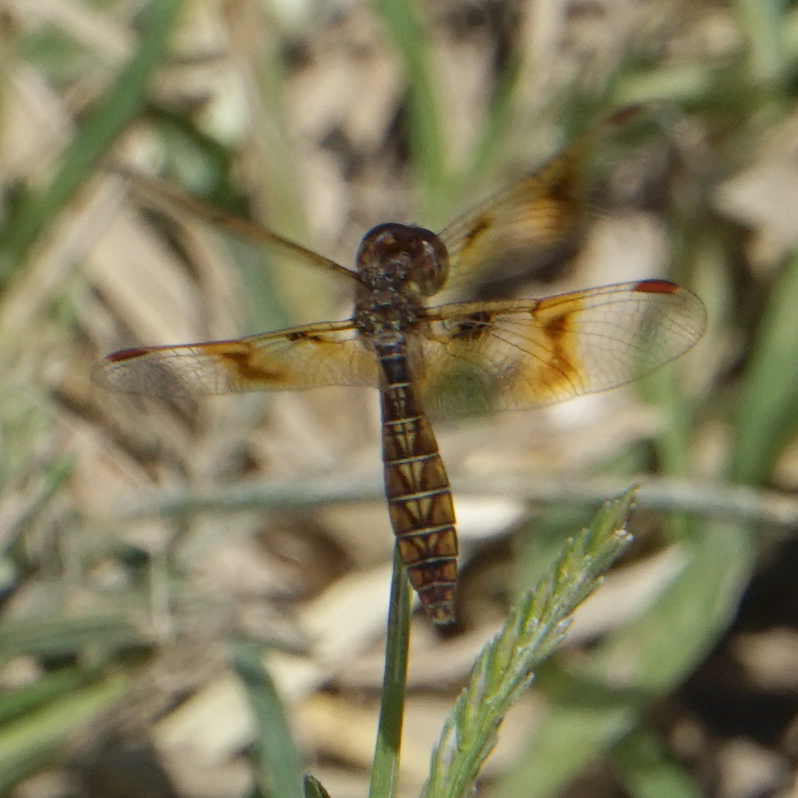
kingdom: Animalia
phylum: Arthropoda
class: Insecta
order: Odonata
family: Libellulidae
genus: Perithemis
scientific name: Perithemis tenera
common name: Eastern amberwing
